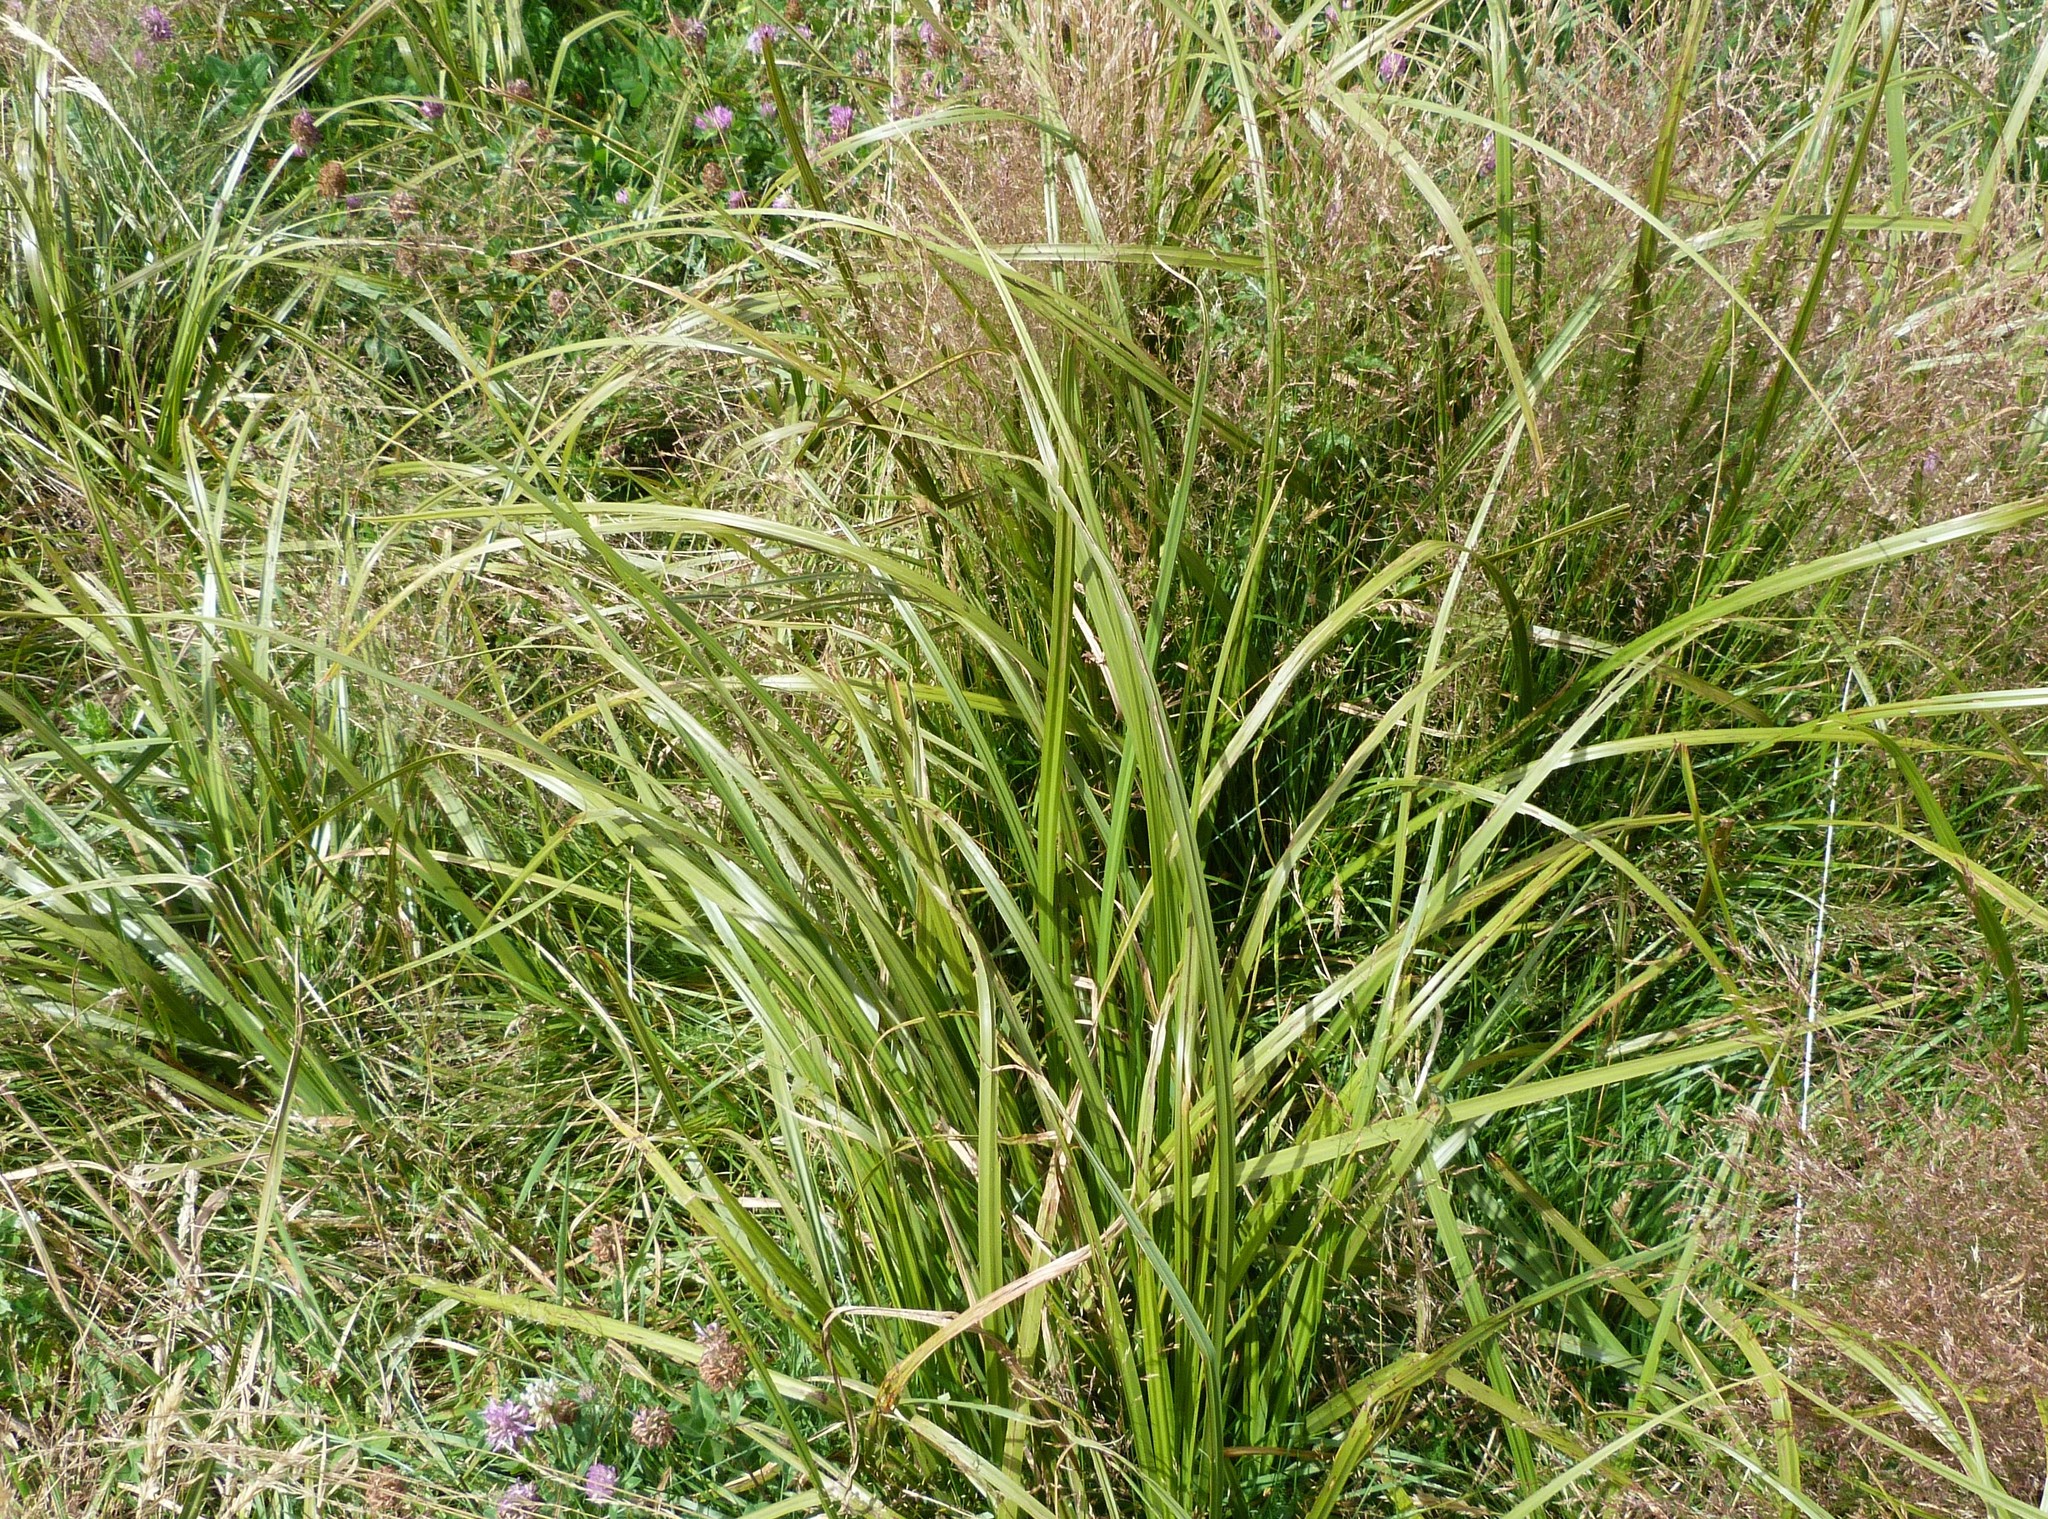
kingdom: Plantae
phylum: Tracheophyta
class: Liliopsida
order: Poales
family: Cyperaceae
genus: Carex
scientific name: Carex geminata
